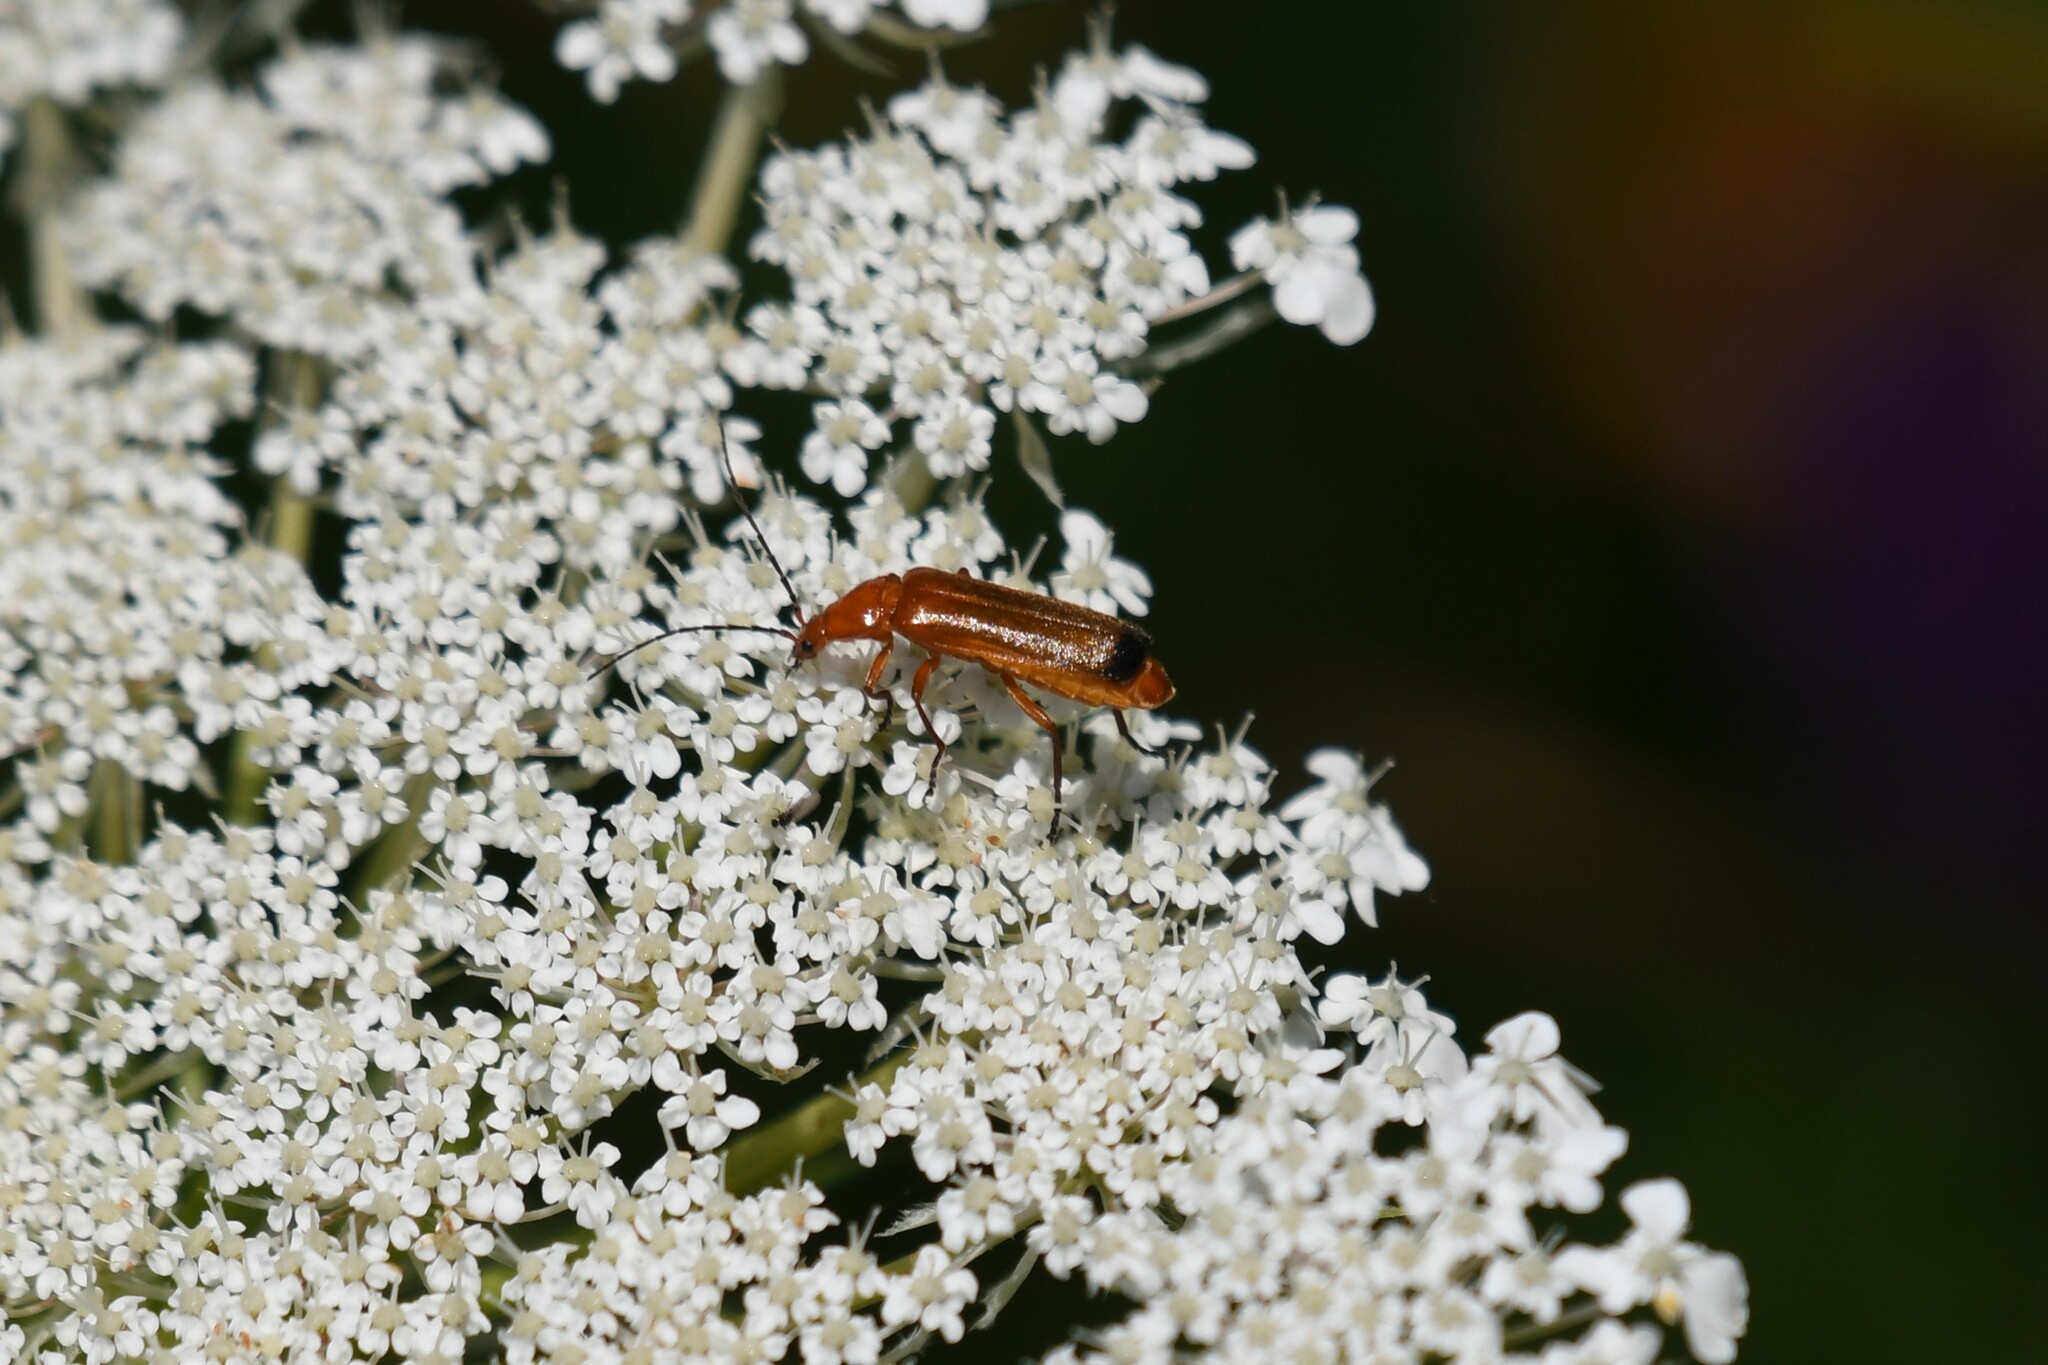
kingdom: Animalia
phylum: Arthropoda
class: Insecta
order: Coleoptera
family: Cantharidae
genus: Rhagonycha
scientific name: Rhagonycha fulva
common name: Common red soldier beetle
